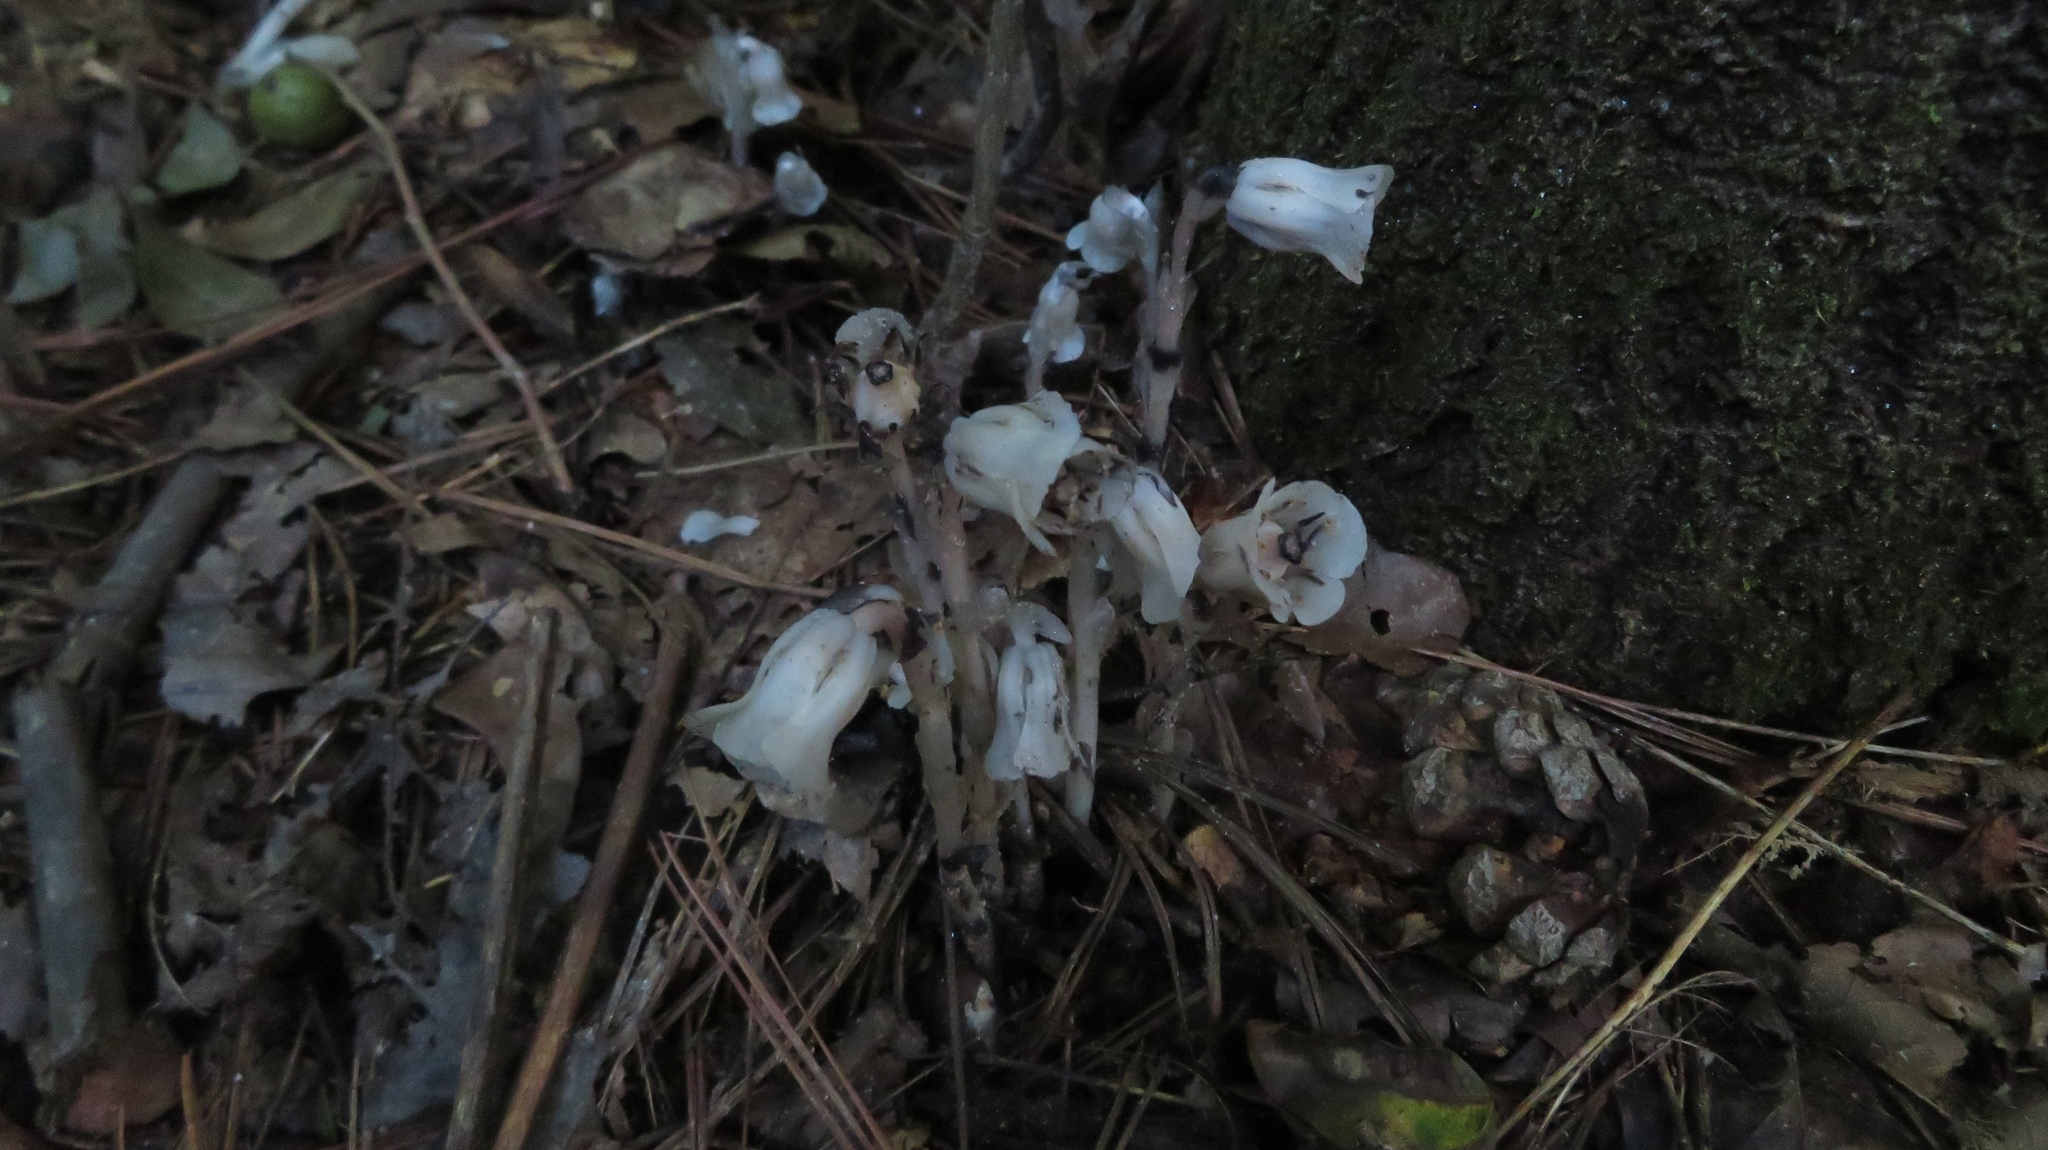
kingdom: Plantae
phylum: Tracheophyta
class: Magnoliopsida
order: Ericales
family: Ericaceae
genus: Monotropa
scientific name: Monotropa uniflora
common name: Convulsion root
